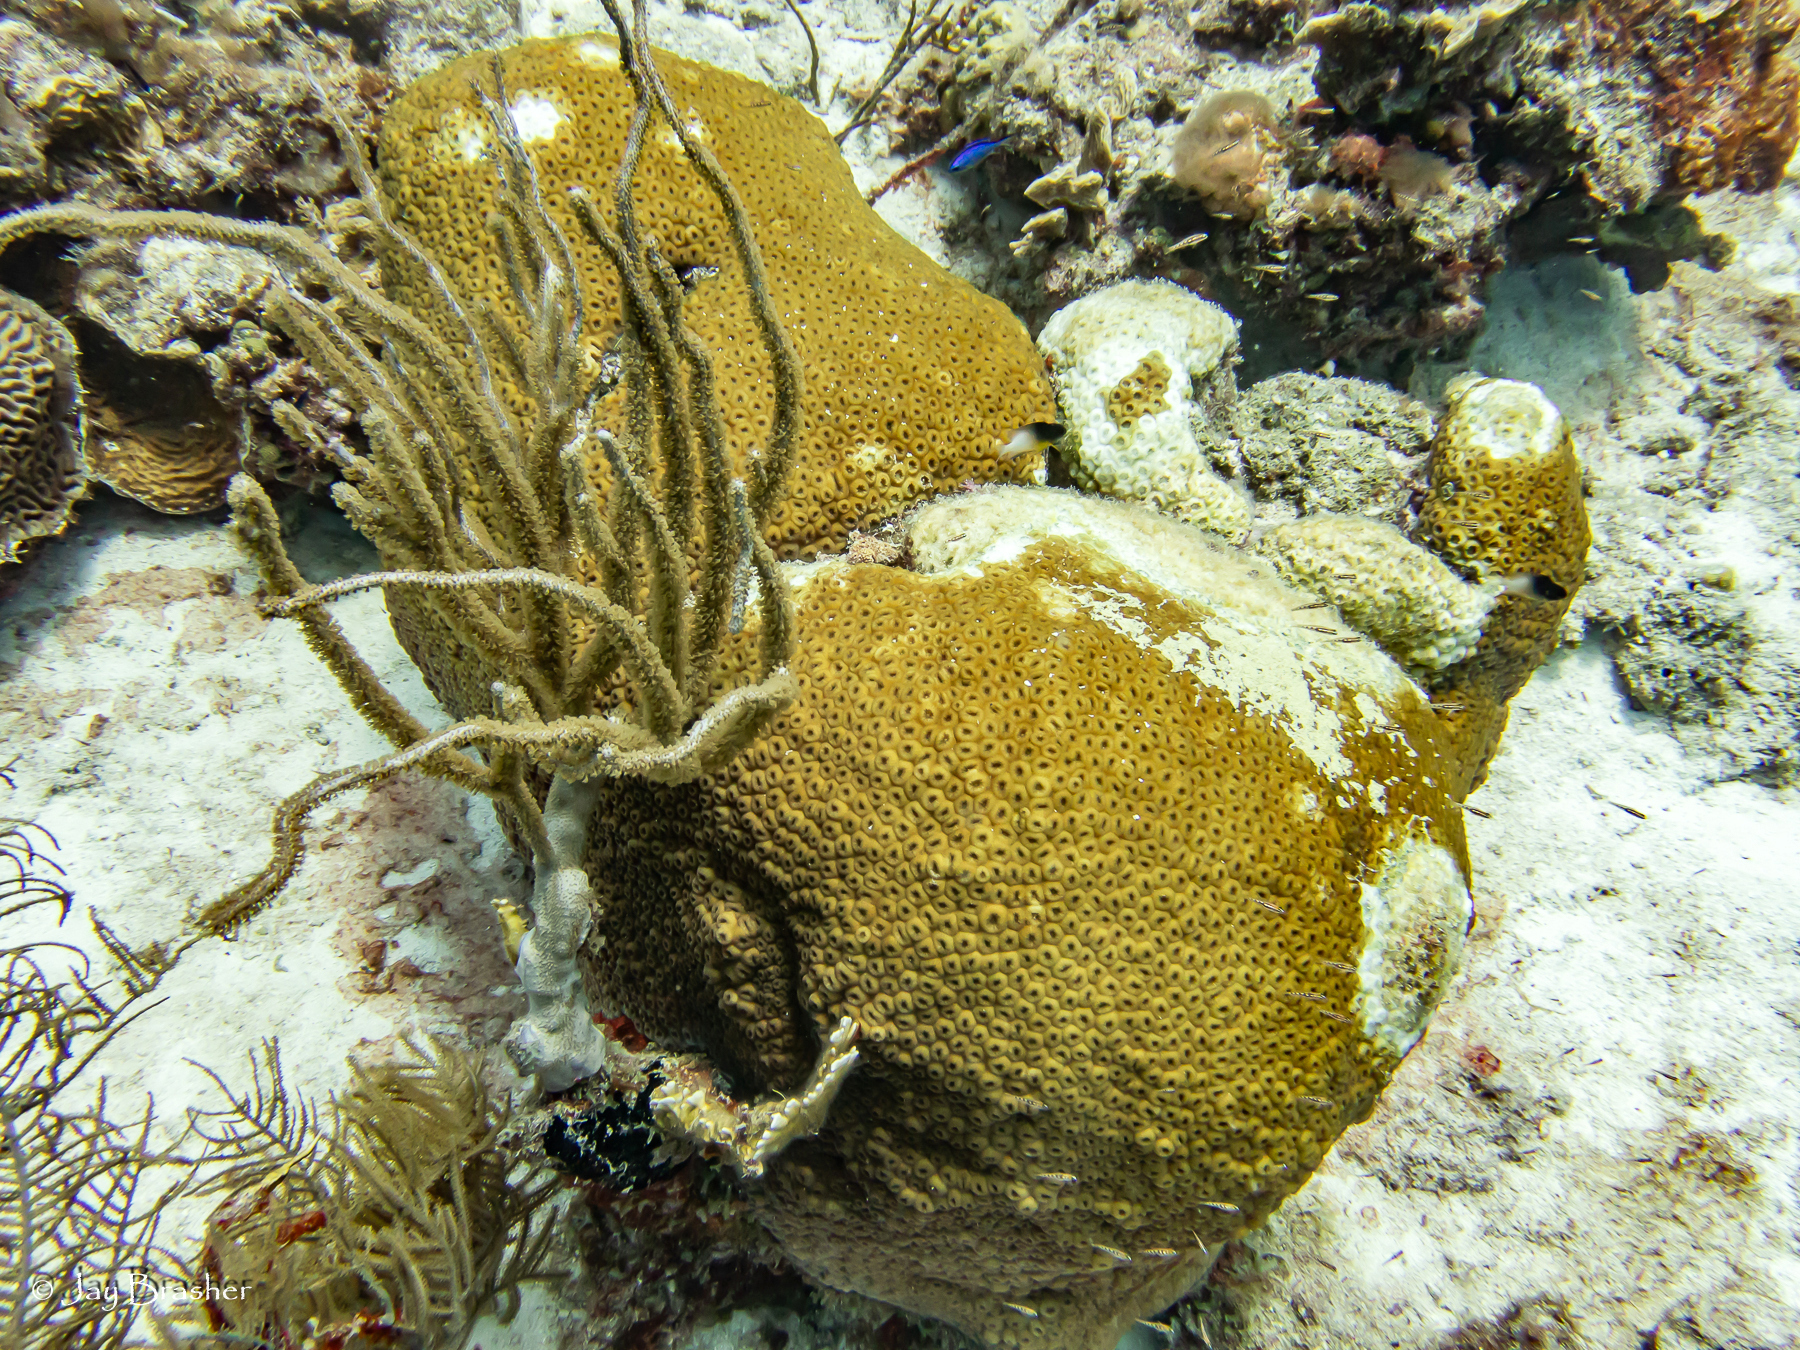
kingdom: Animalia
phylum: Cnidaria
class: Anthozoa
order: Scleractinia
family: Montastraeidae
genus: Montastraea
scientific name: Montastraea cavernosa
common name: Great star coral
